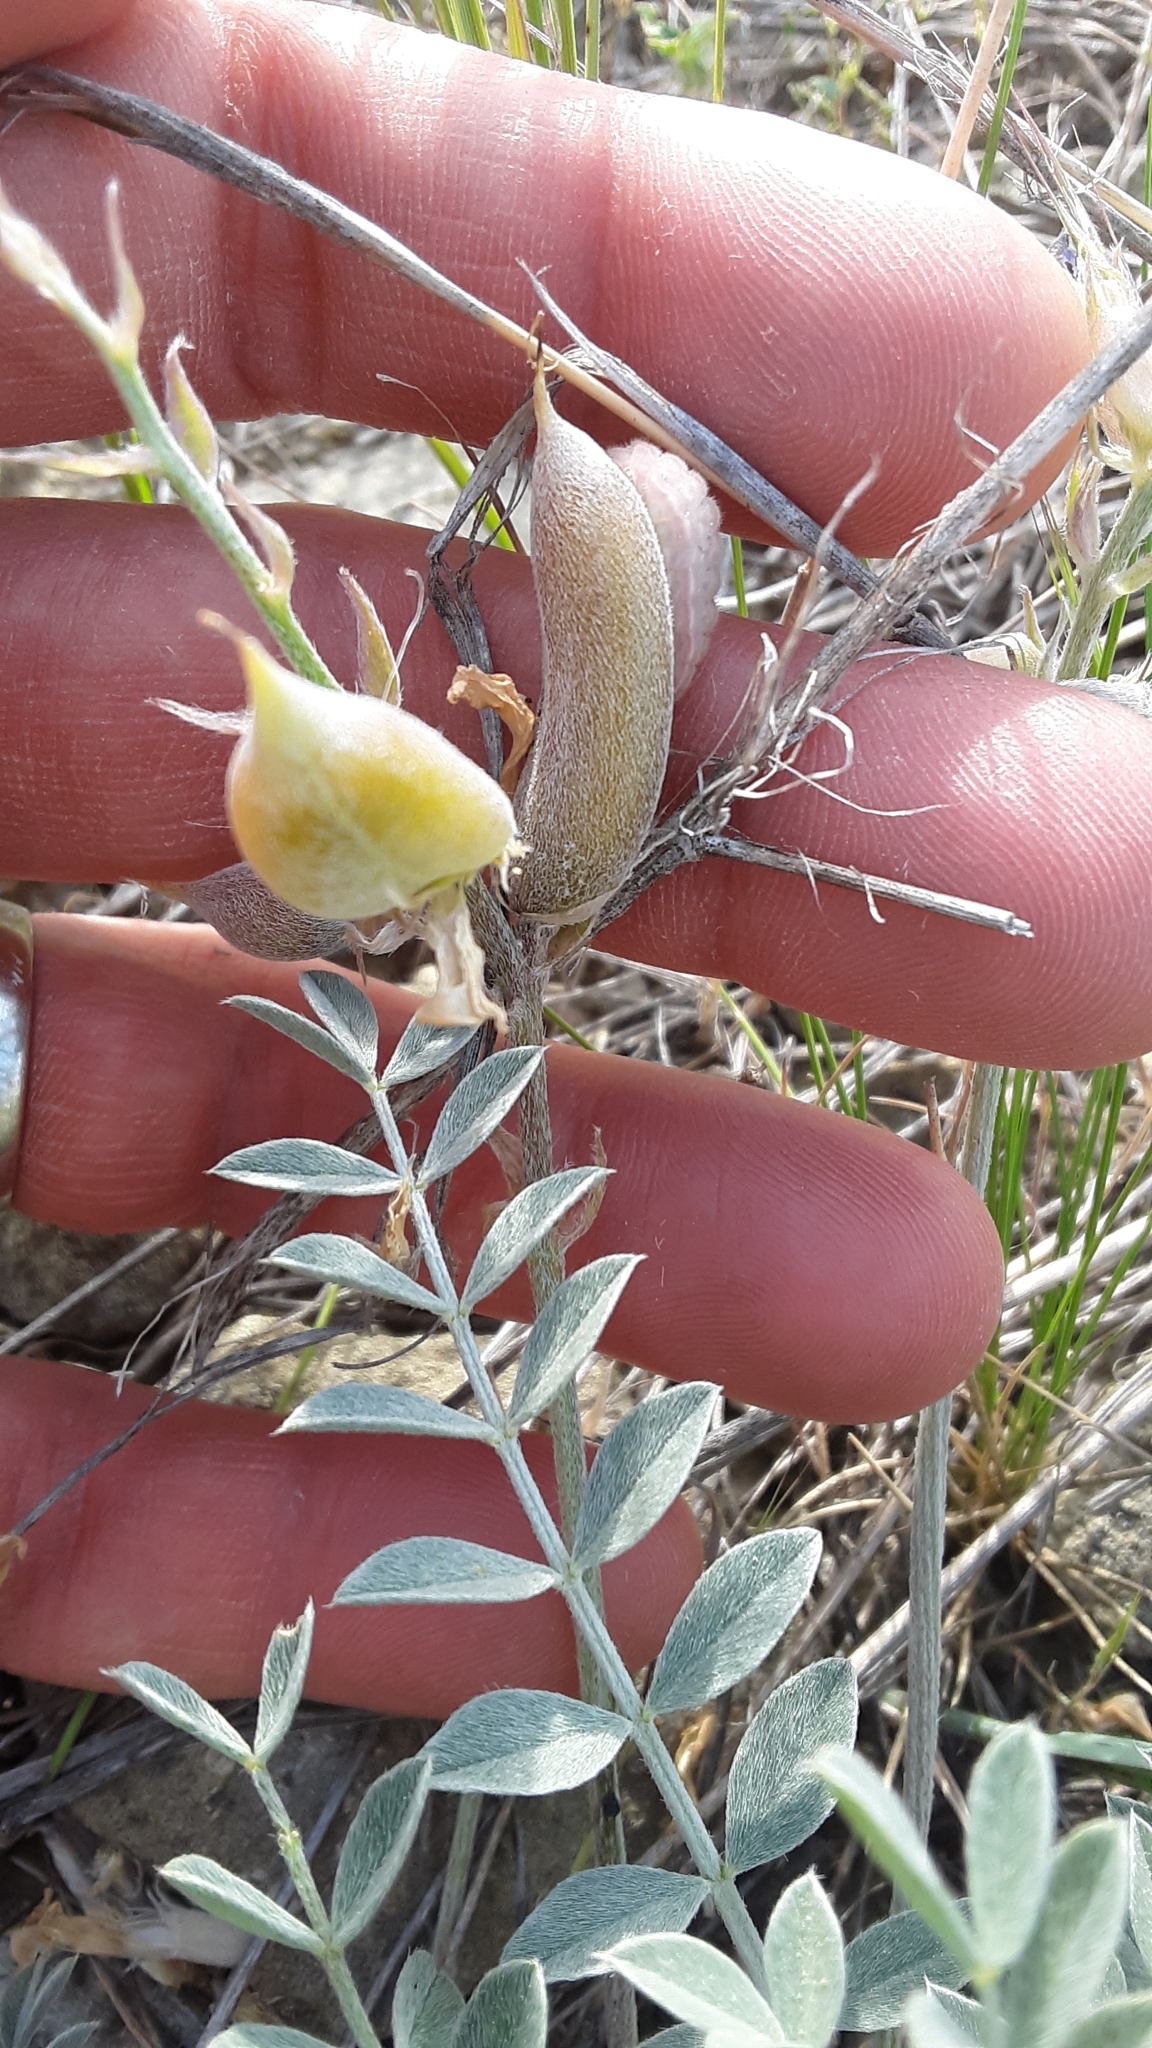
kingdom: Plantae
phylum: Tracheophyta
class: Magnoliopsida
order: Fabales
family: Fabaceae
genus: Astragalus
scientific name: Astragalus missouriensis
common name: Missouri milk-vetch
